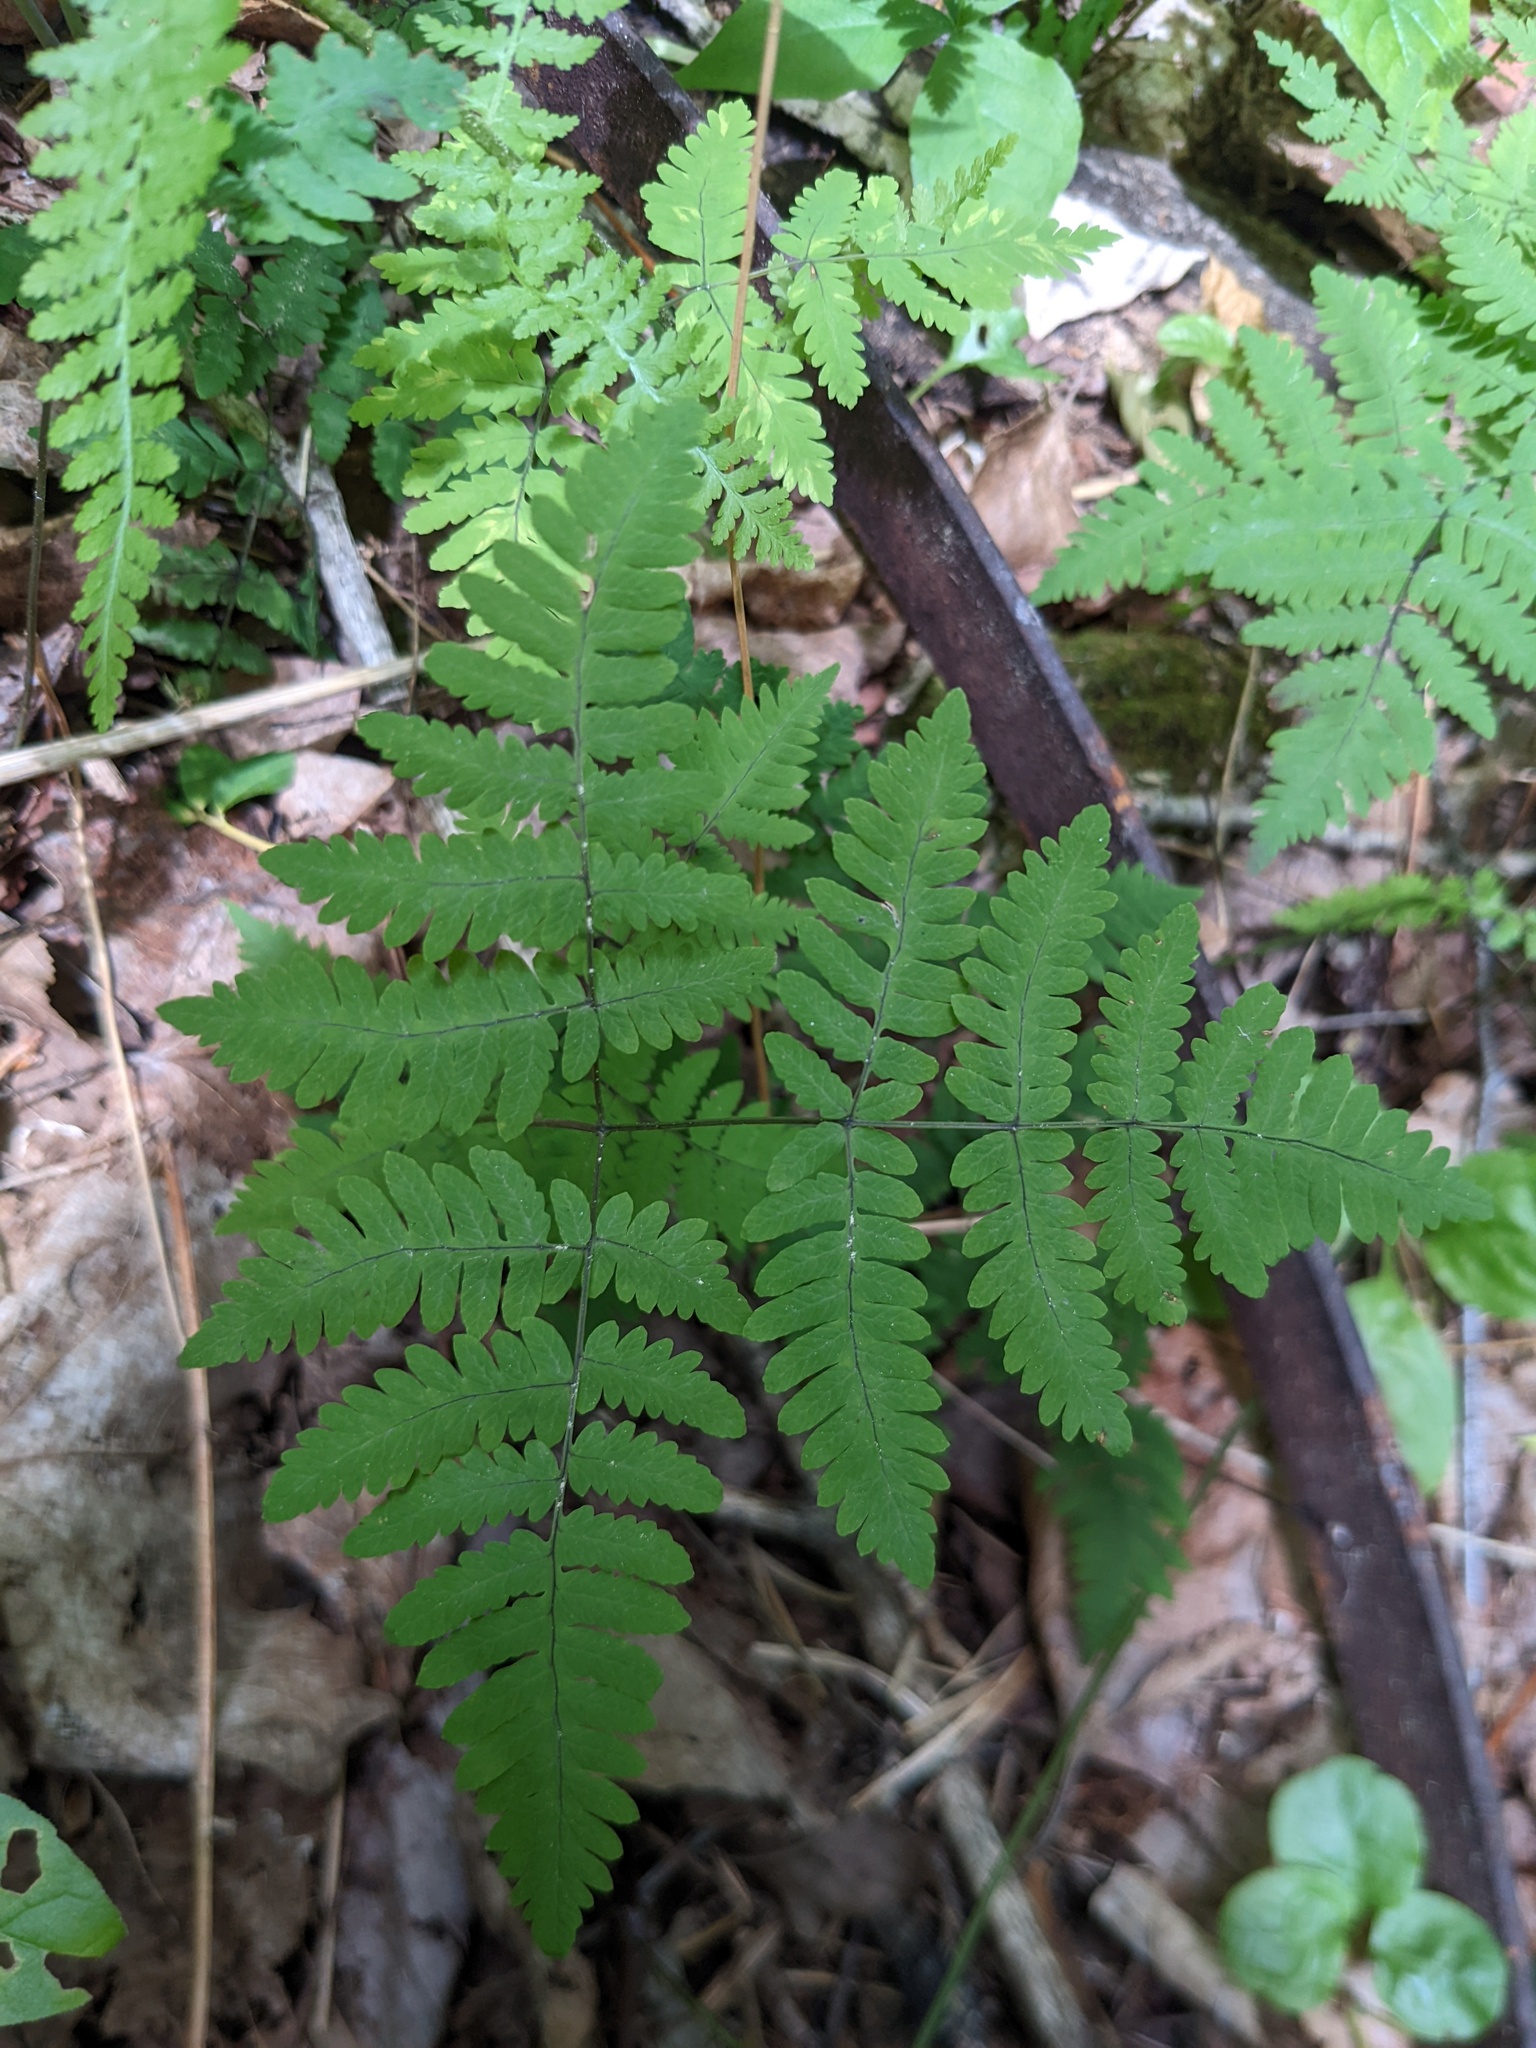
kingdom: Plantae
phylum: Tracheophyta
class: Polypodiopsida
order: Polypodiales
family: Cystopteridaceae
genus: Gymnocarpium
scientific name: Gymnocarpium dryopteris
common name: Oak fern
